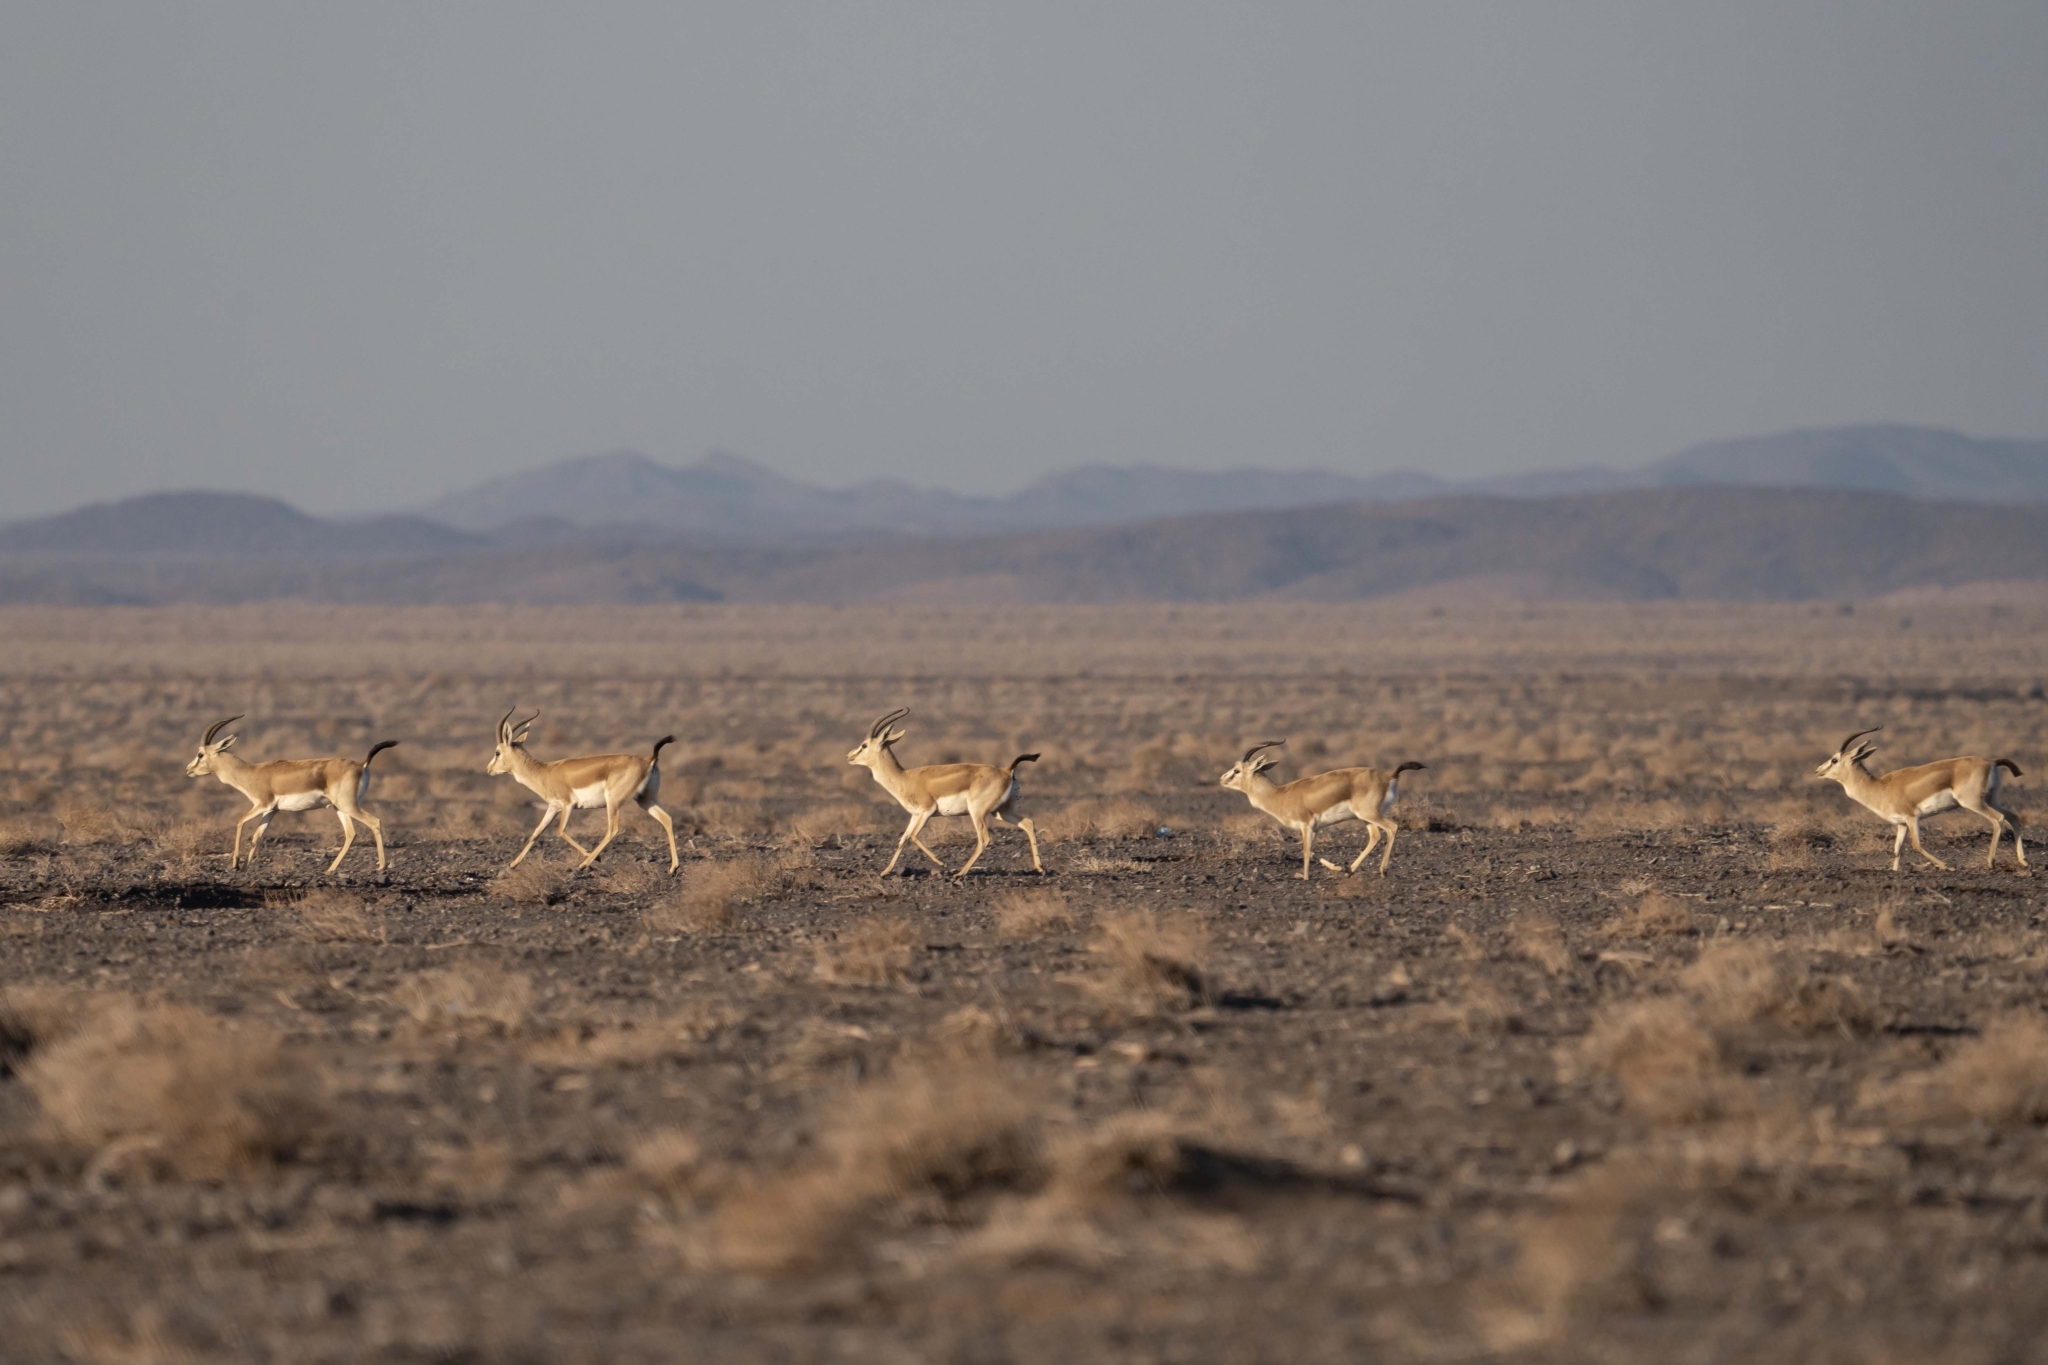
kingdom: Animalia
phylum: Chordata
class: Mammalia
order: Artiodactyla
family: Bovidae
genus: Gazella
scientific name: Gazella subgutturosa
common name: Goitered gazelle
